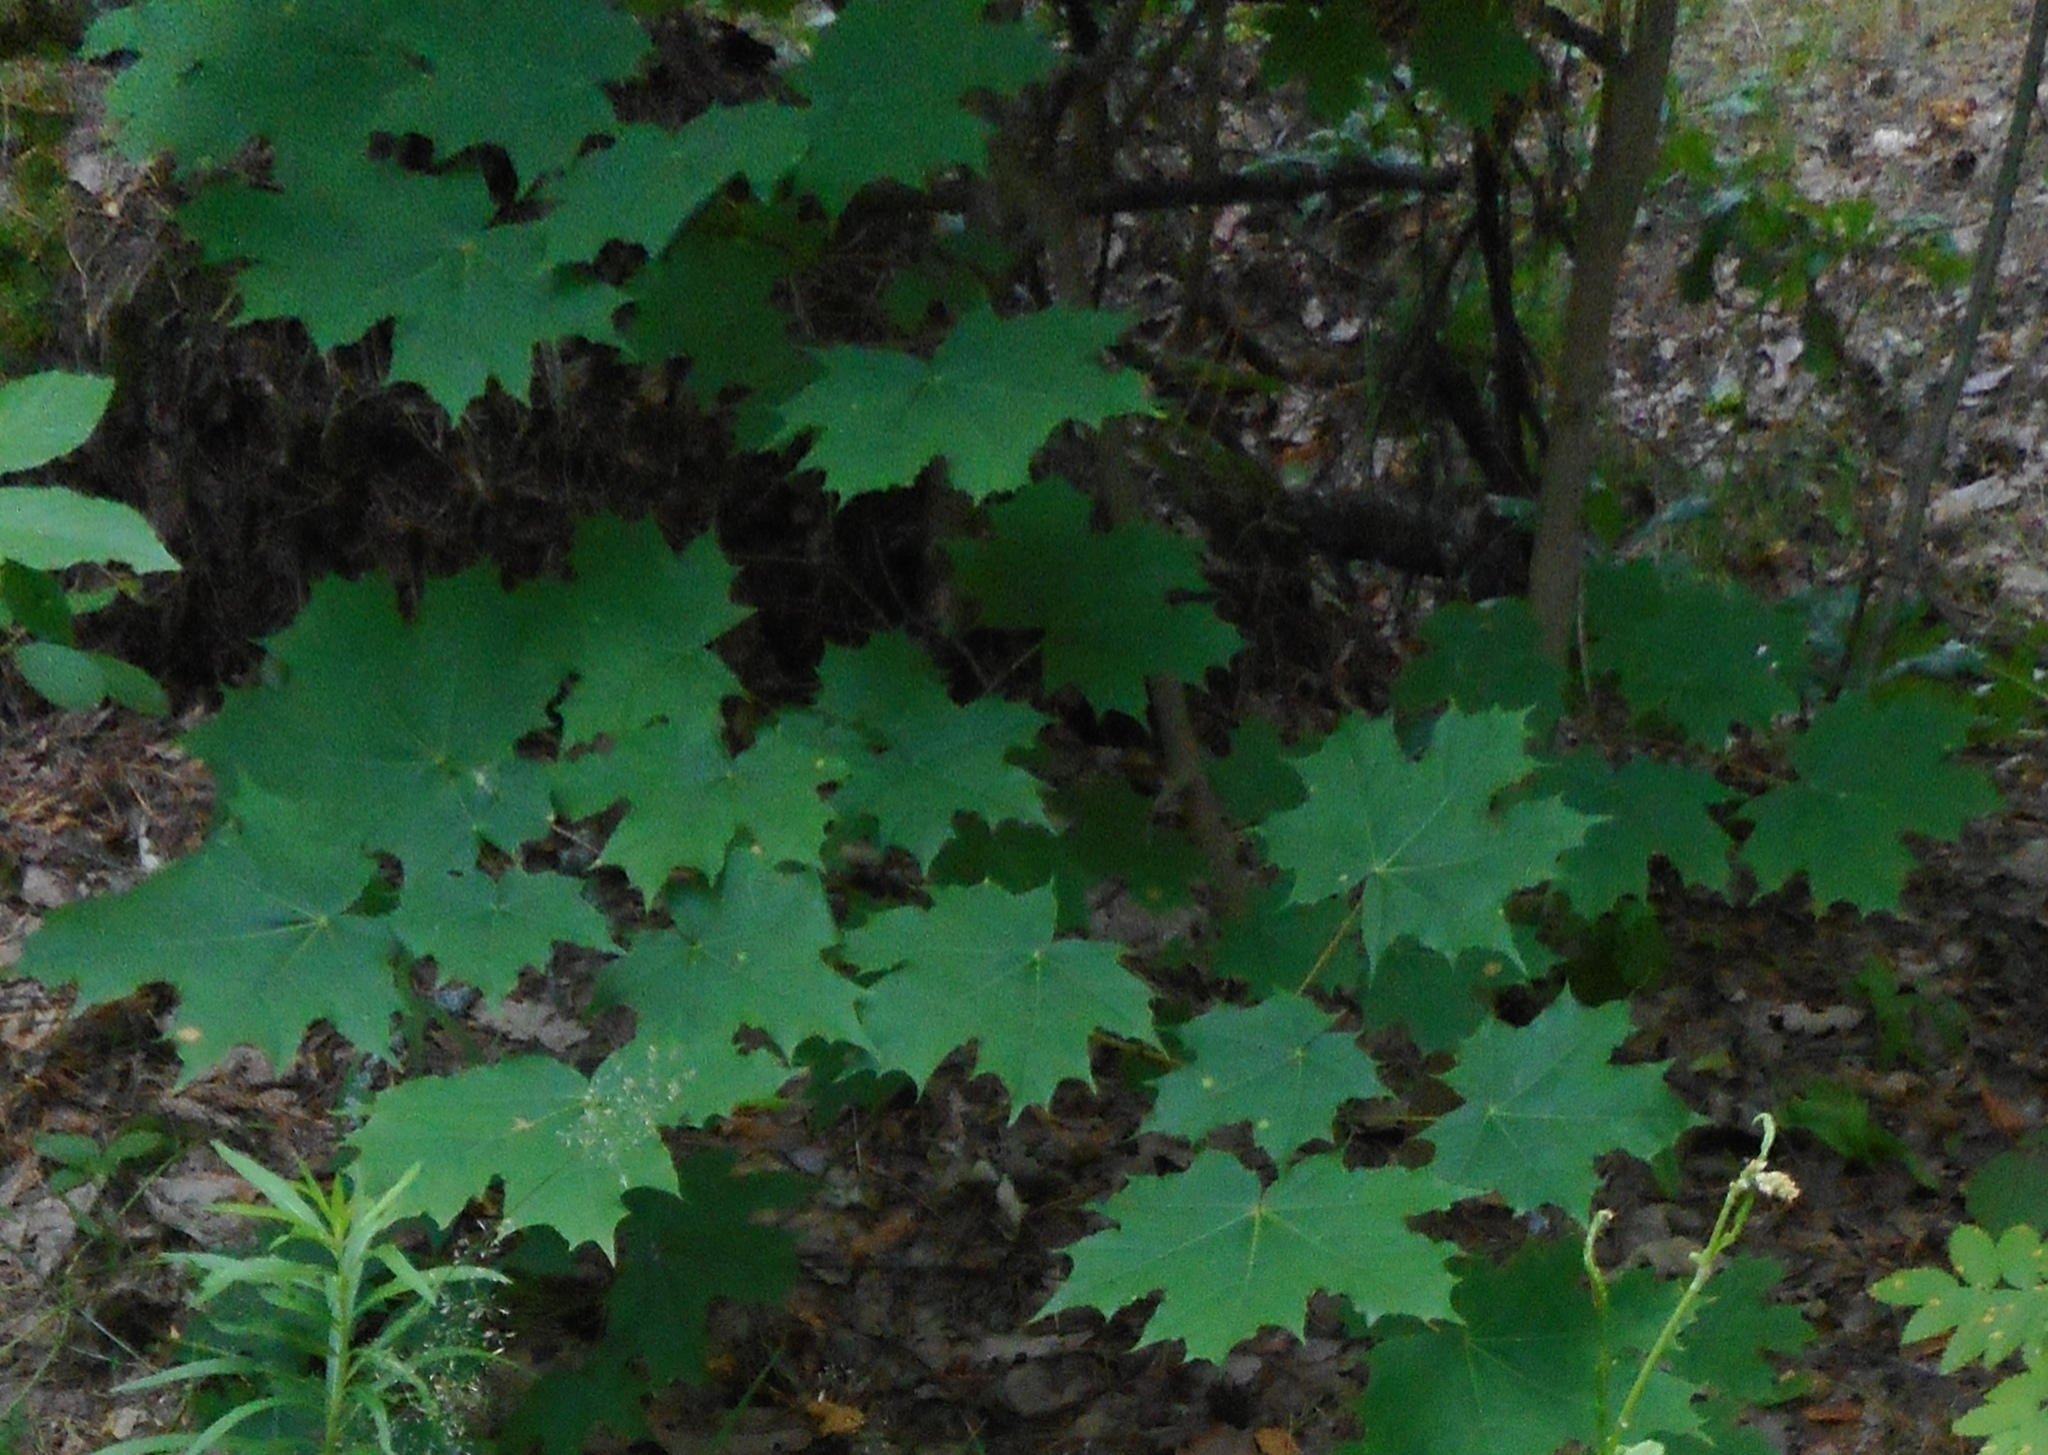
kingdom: Plantae
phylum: Tracheophyta
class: Magnoliopsida
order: Sapindales
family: Sapindaceae
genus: Acer
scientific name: Acer platanoides
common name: Norway maple
